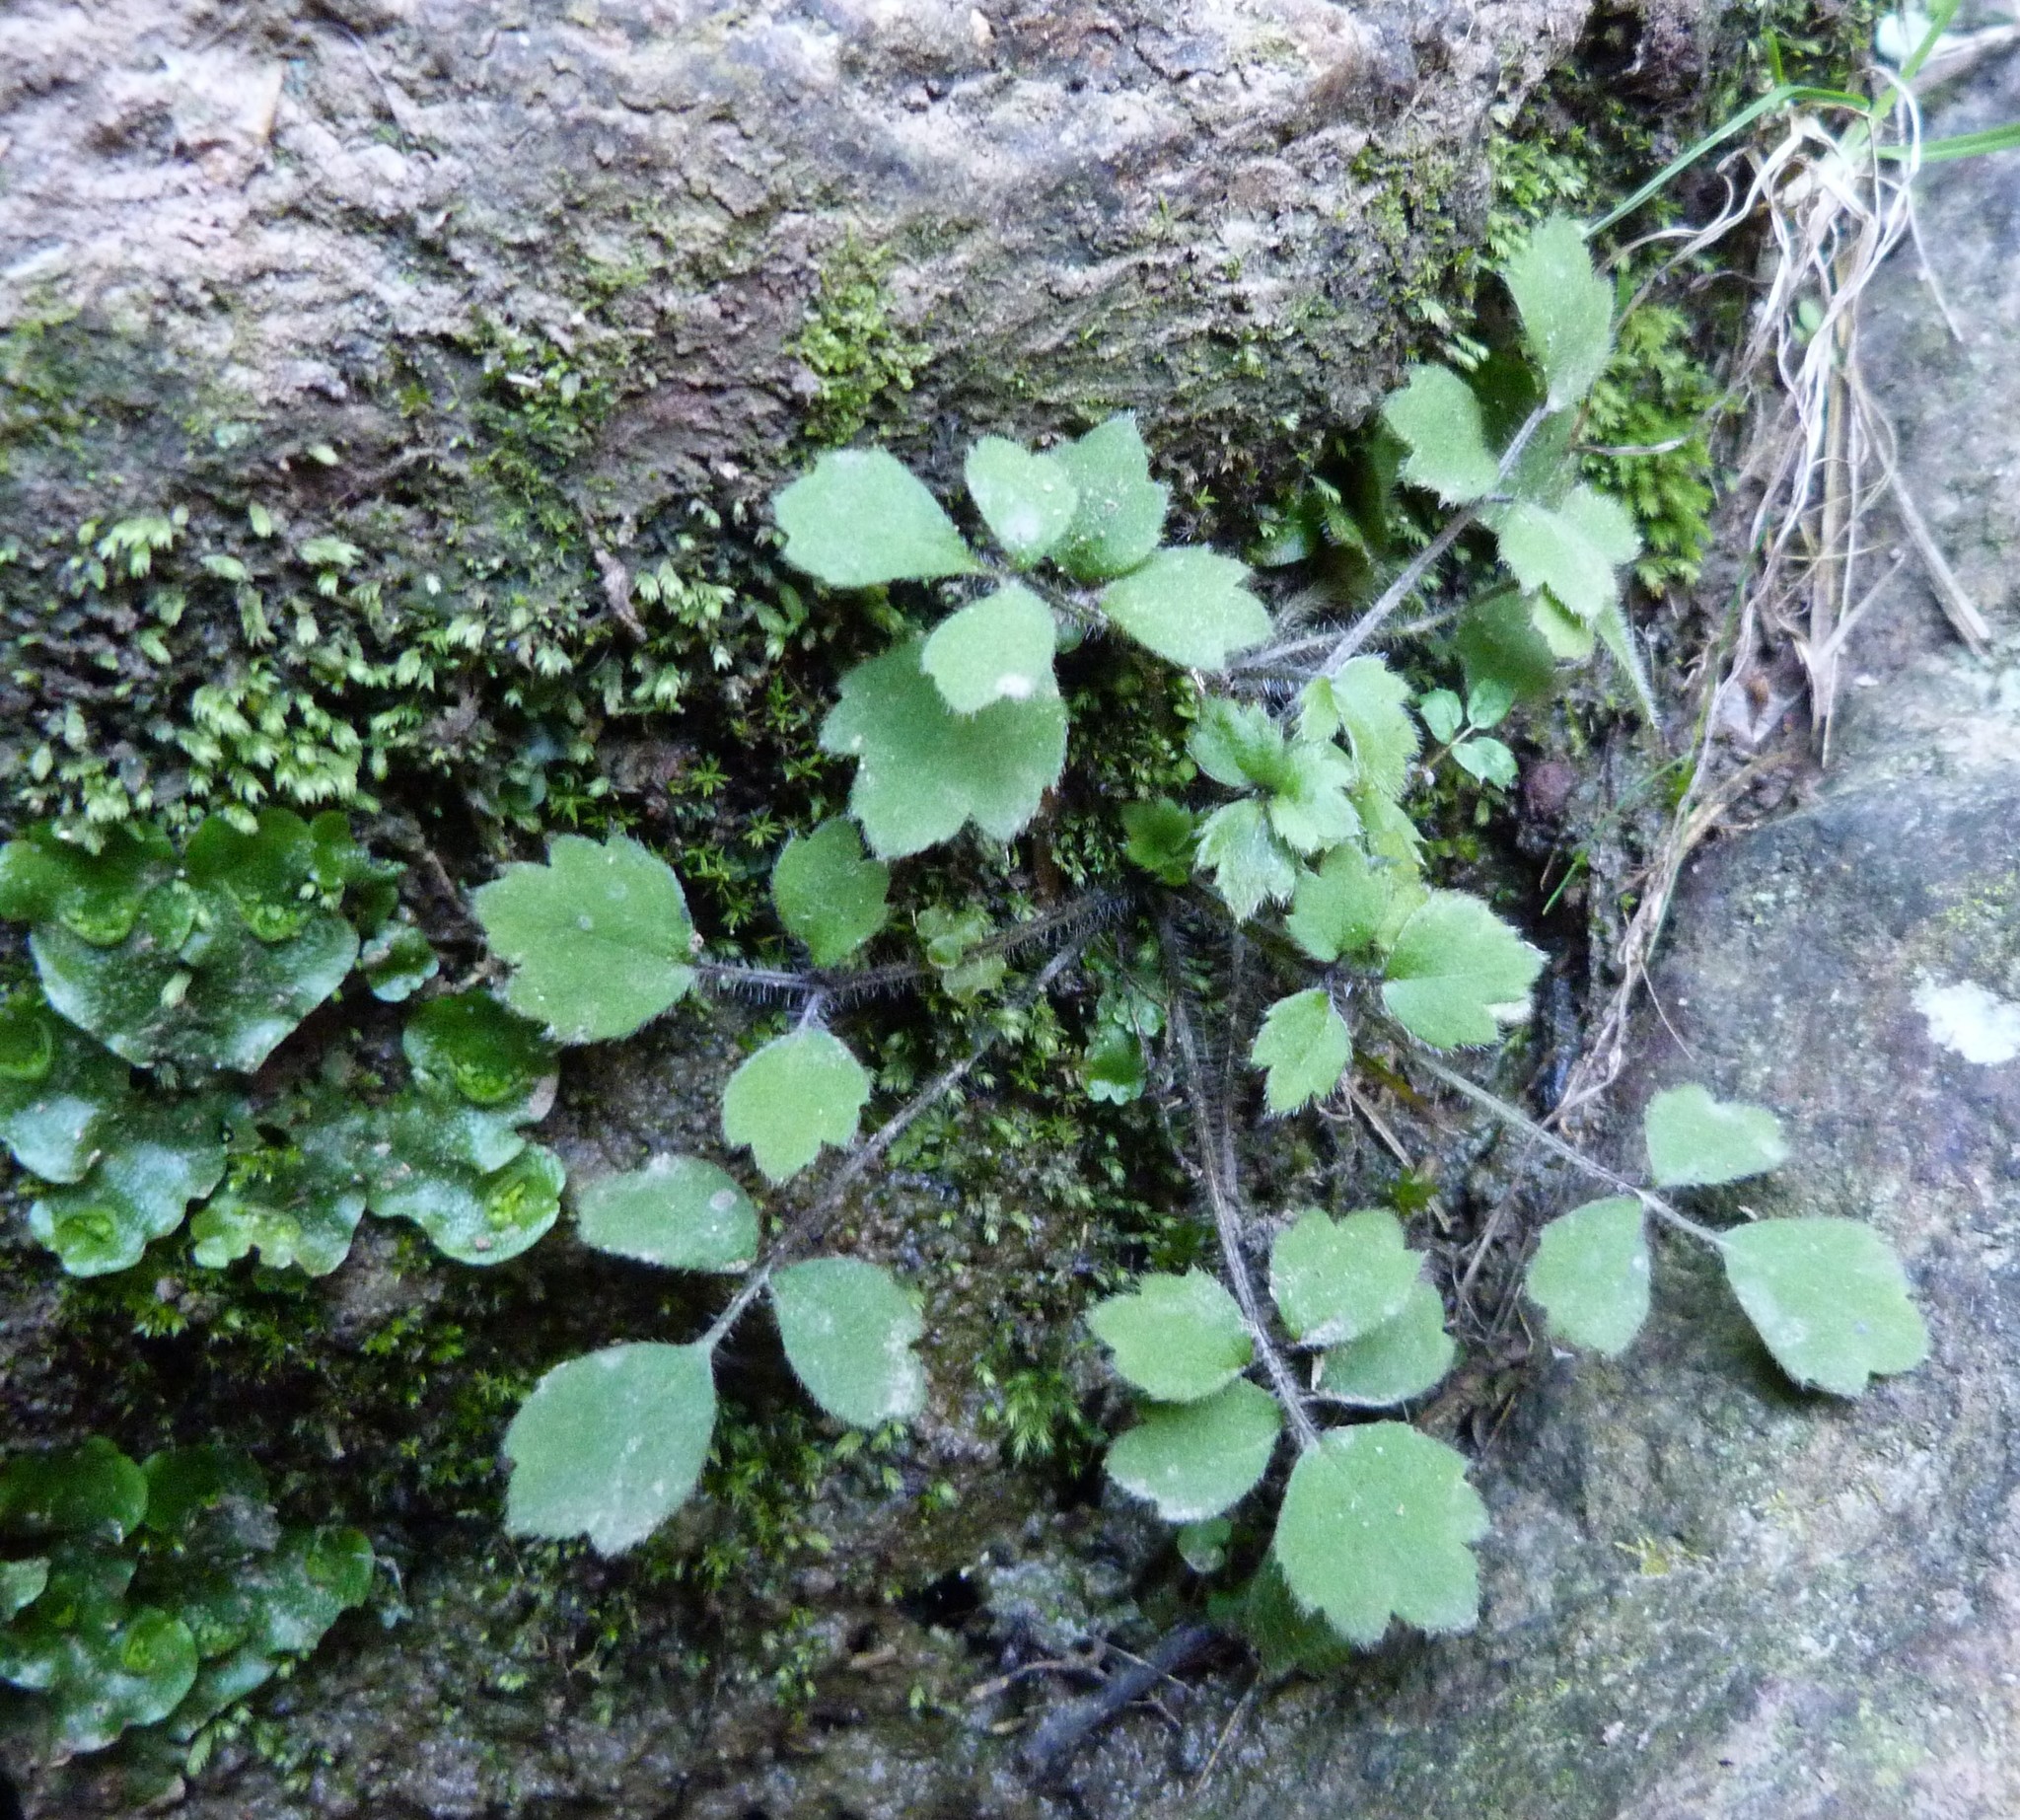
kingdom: Plantae
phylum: Tracheophyta
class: Magnoliopsida
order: Ranunculales
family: Ranunculaceae
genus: Ranunculus
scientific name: Ranunculus reflexus
